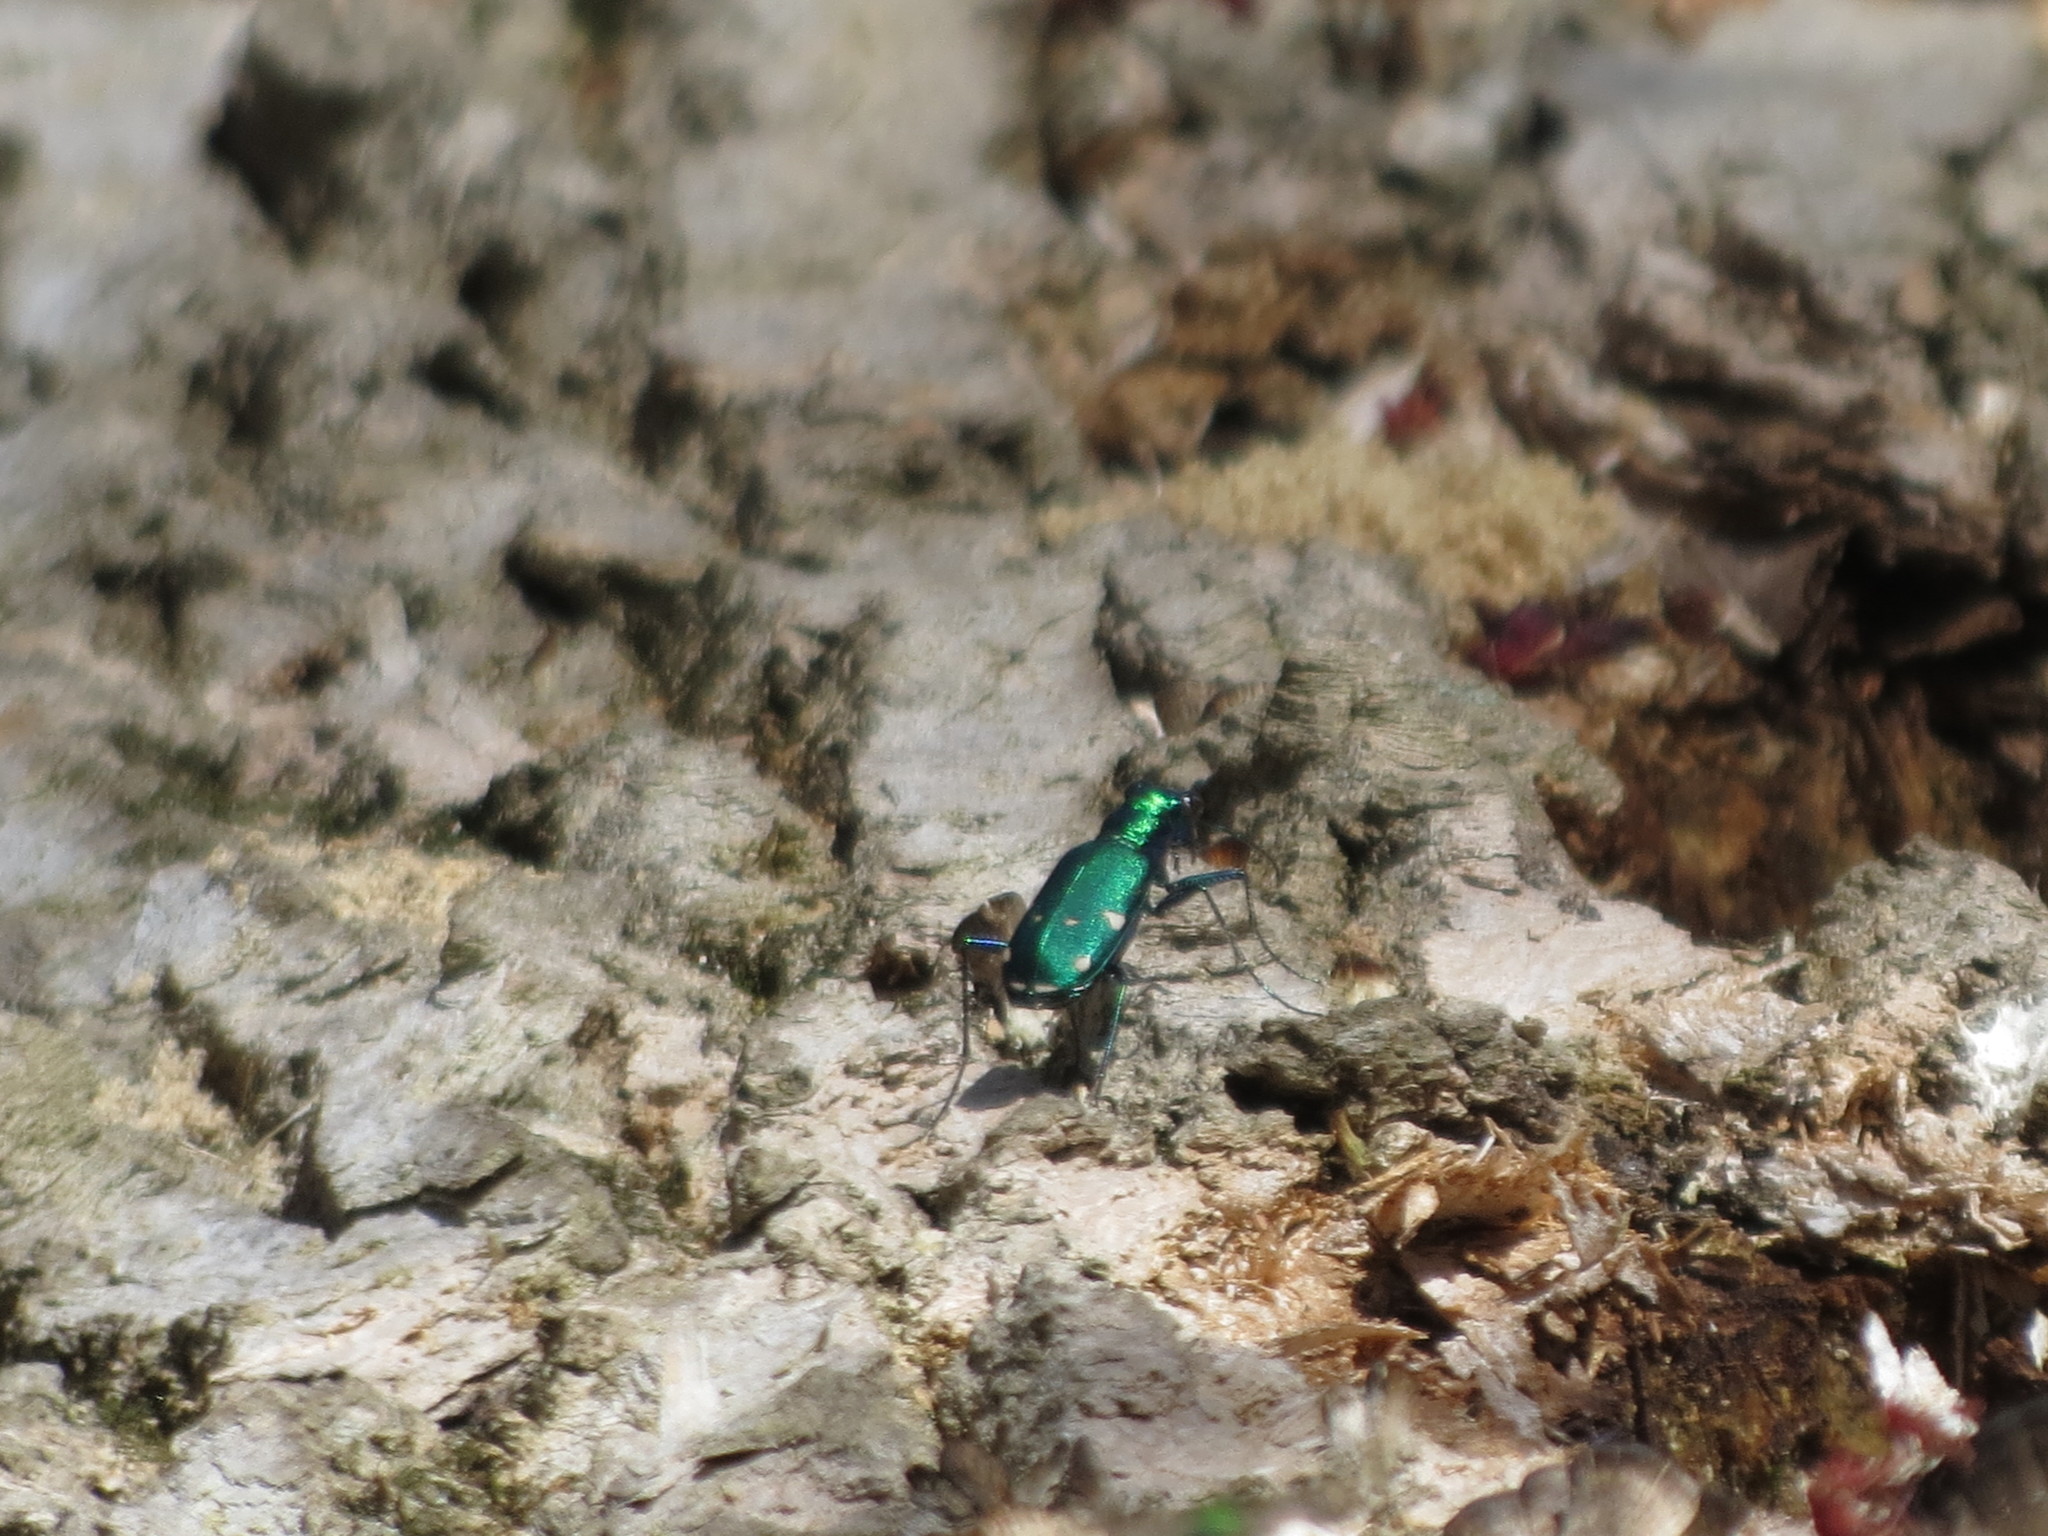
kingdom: Animalia
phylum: Arthropoda
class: Insecta
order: Coleoptera
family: Carabidae
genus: Cicindela
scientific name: Cicindela sexguttata
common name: Six-spotted tiger beetle
